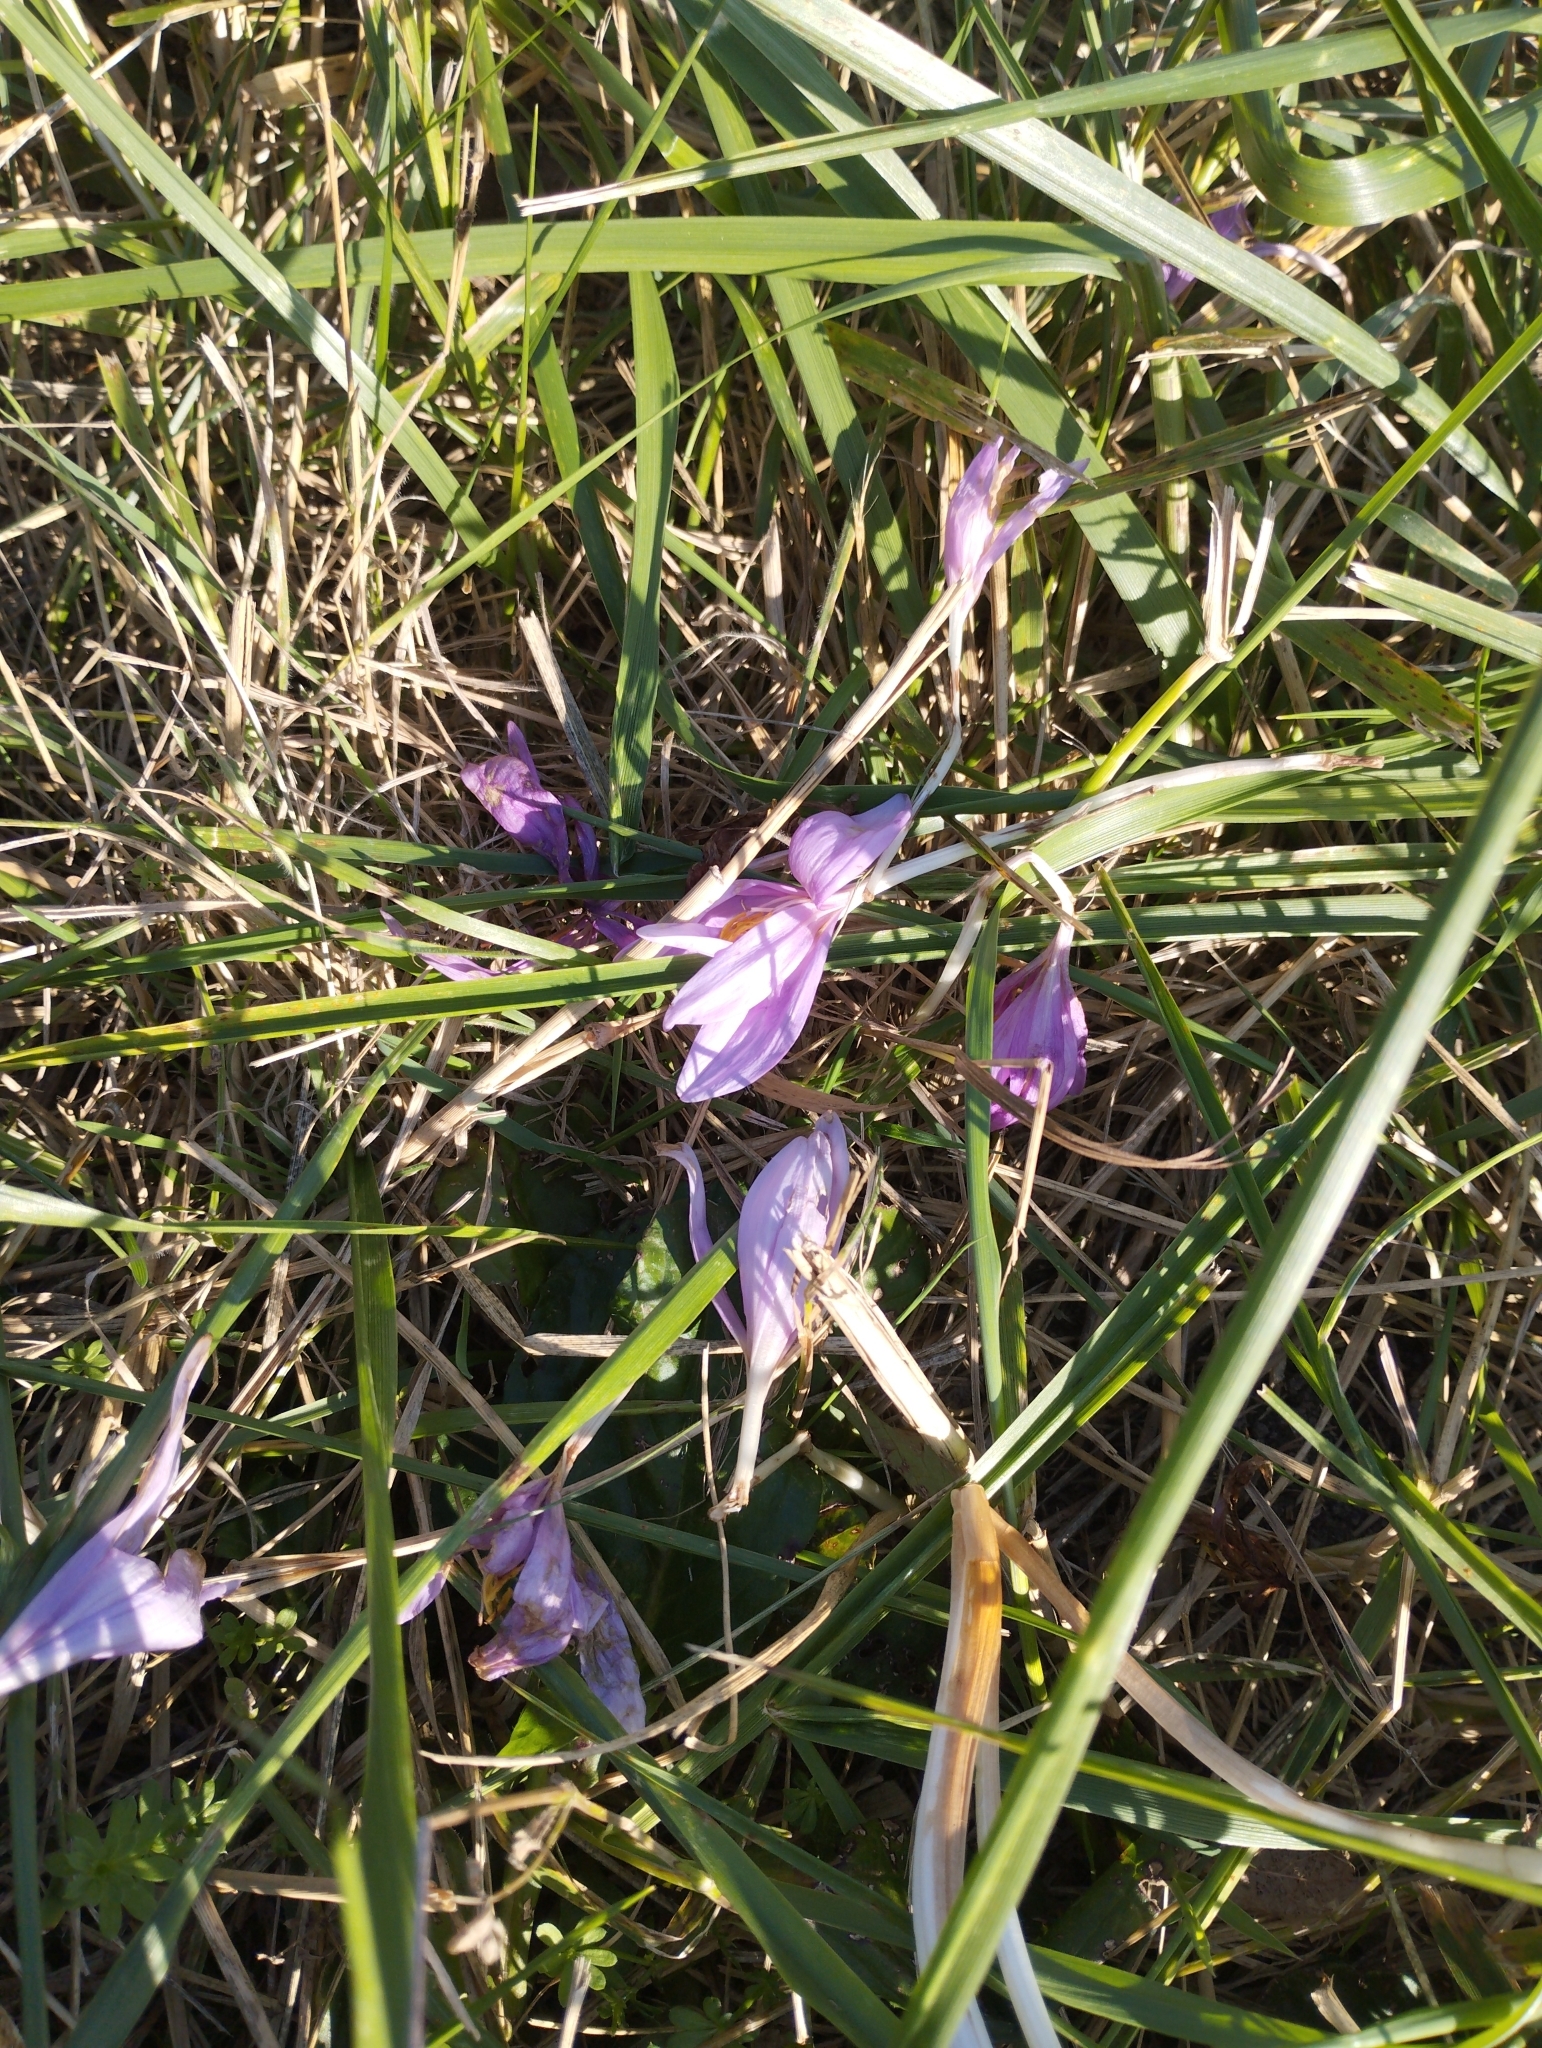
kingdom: Plantae
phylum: Tracheophyta
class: Liliopsida
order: Liliales
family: Colchicaceae
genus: Colchicum
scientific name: Colchicum autumnale
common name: Autumn crocus
